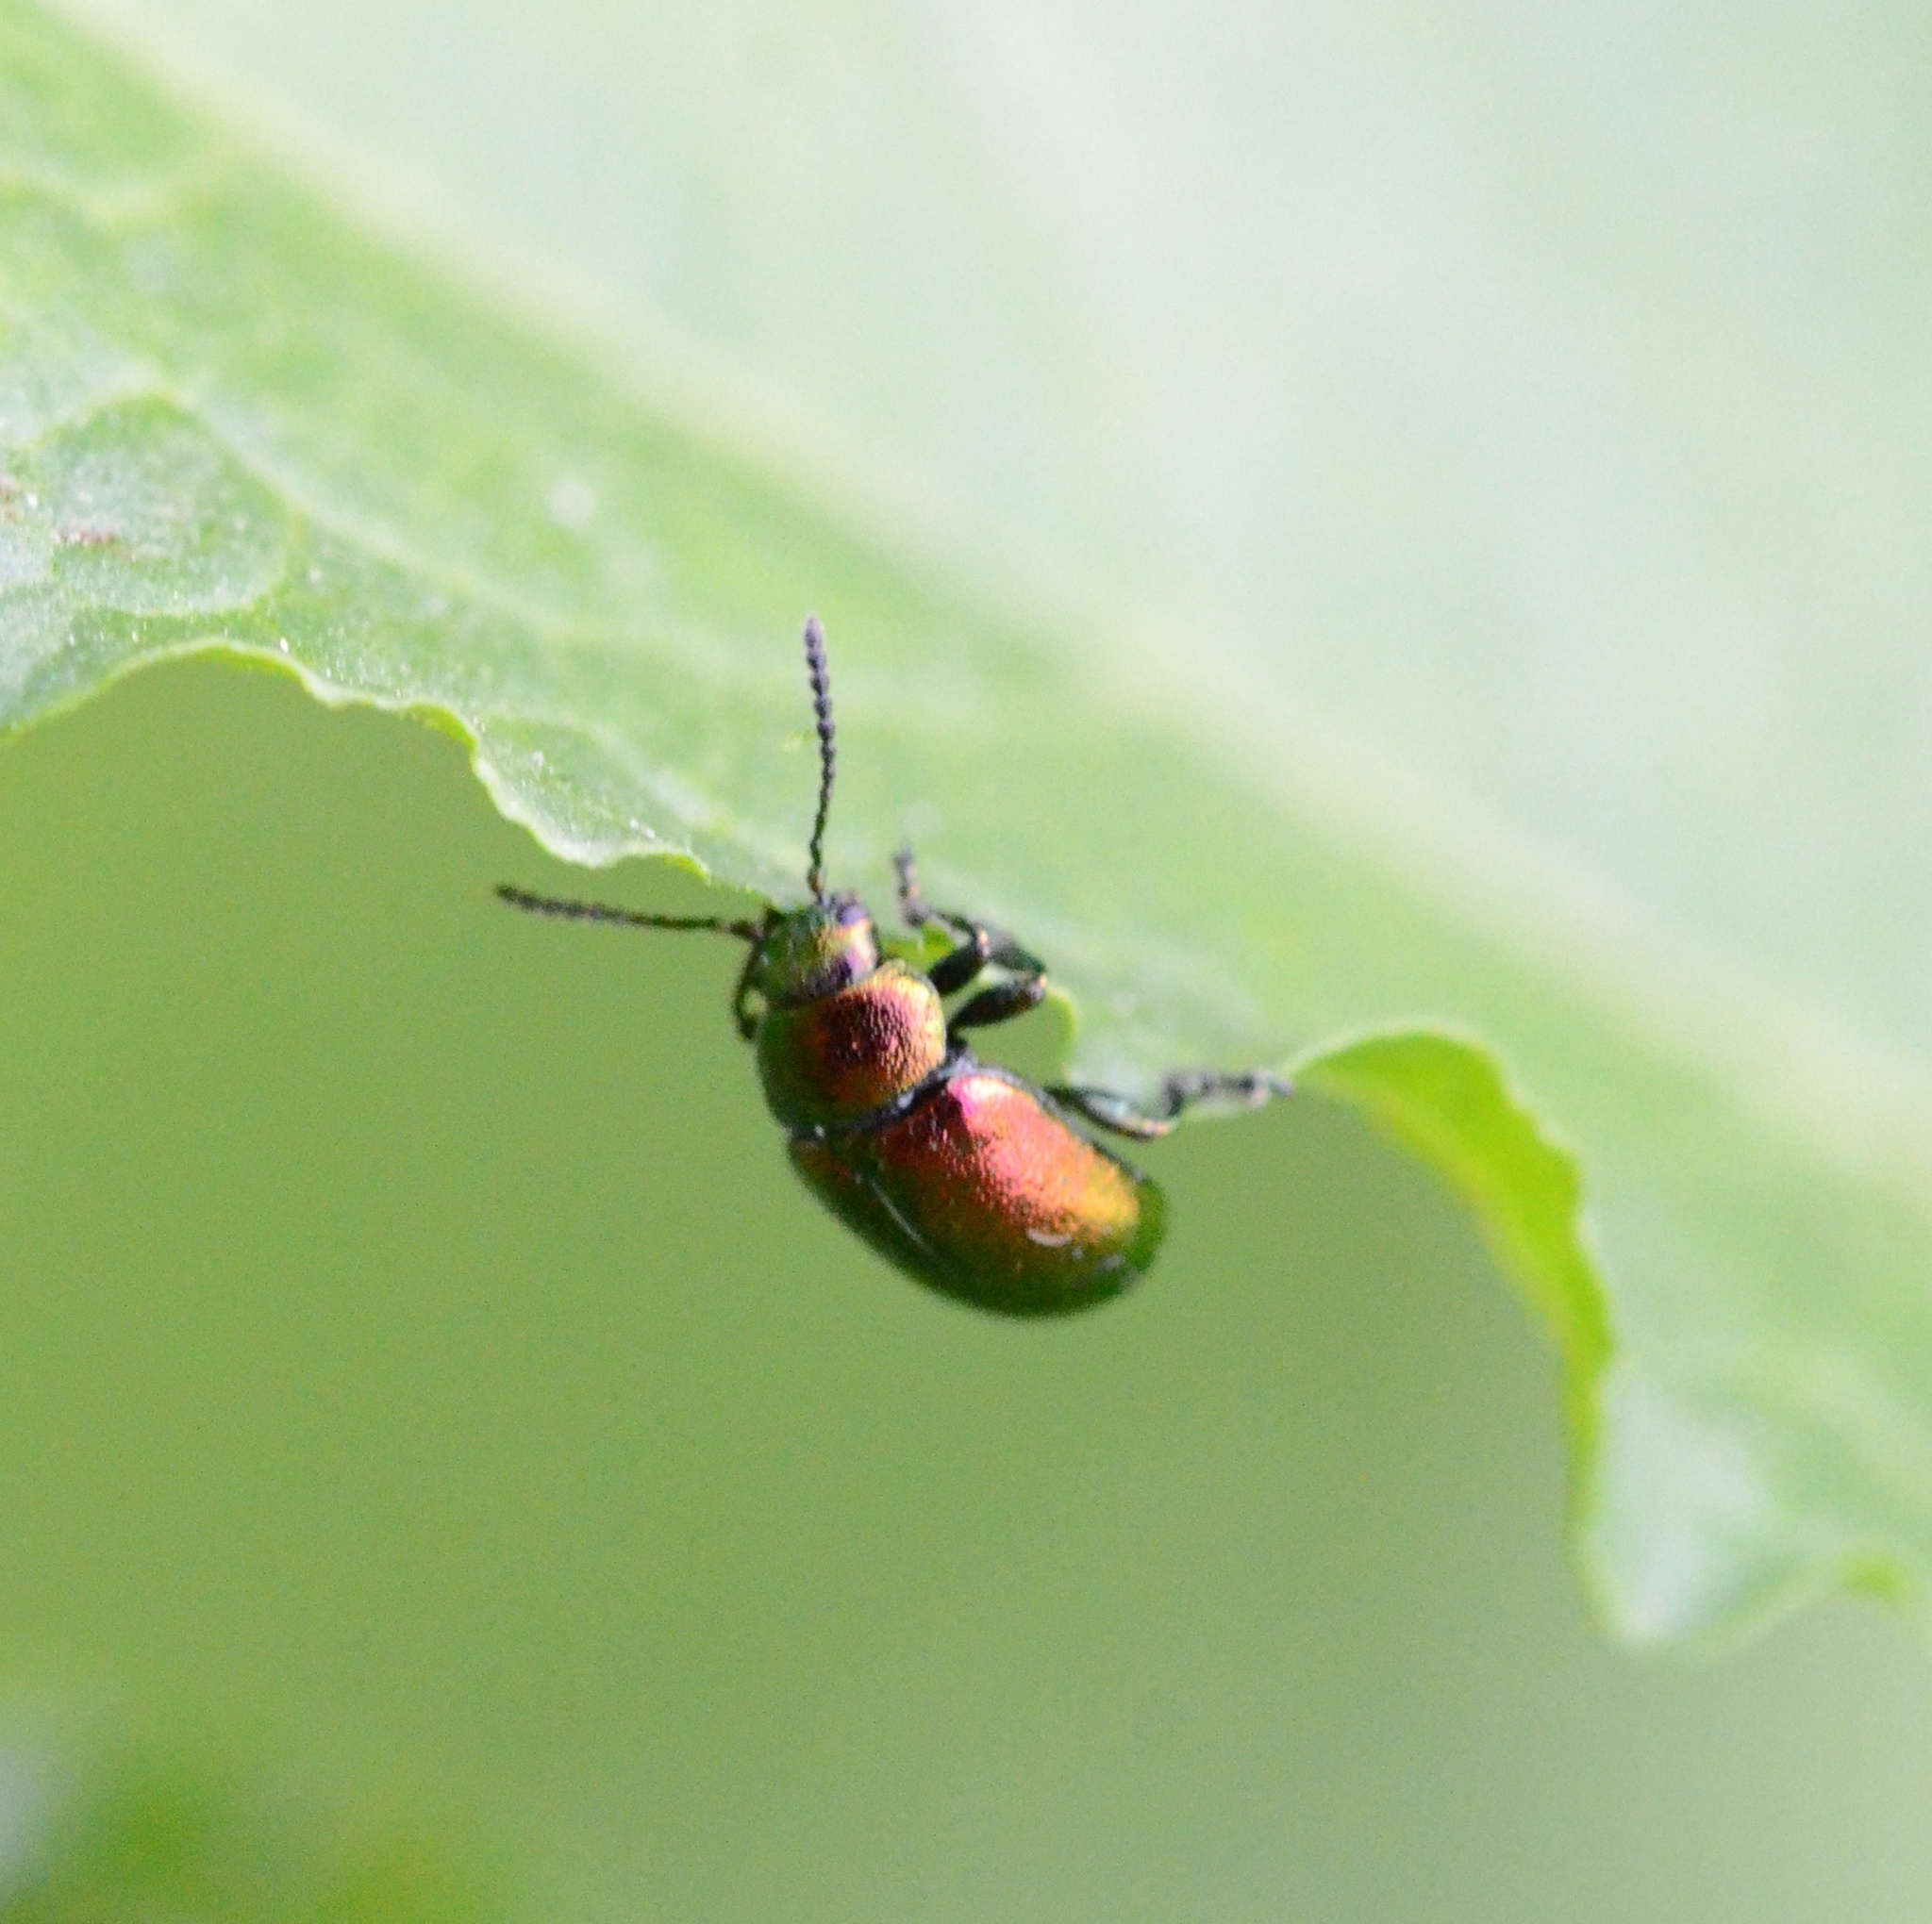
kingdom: Animalia
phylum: Arthropoda
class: Insecta
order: Coleoptera
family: Chrysomelidae
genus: Gastrophysa
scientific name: Gastrophysa viridula
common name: Green dock beetle
